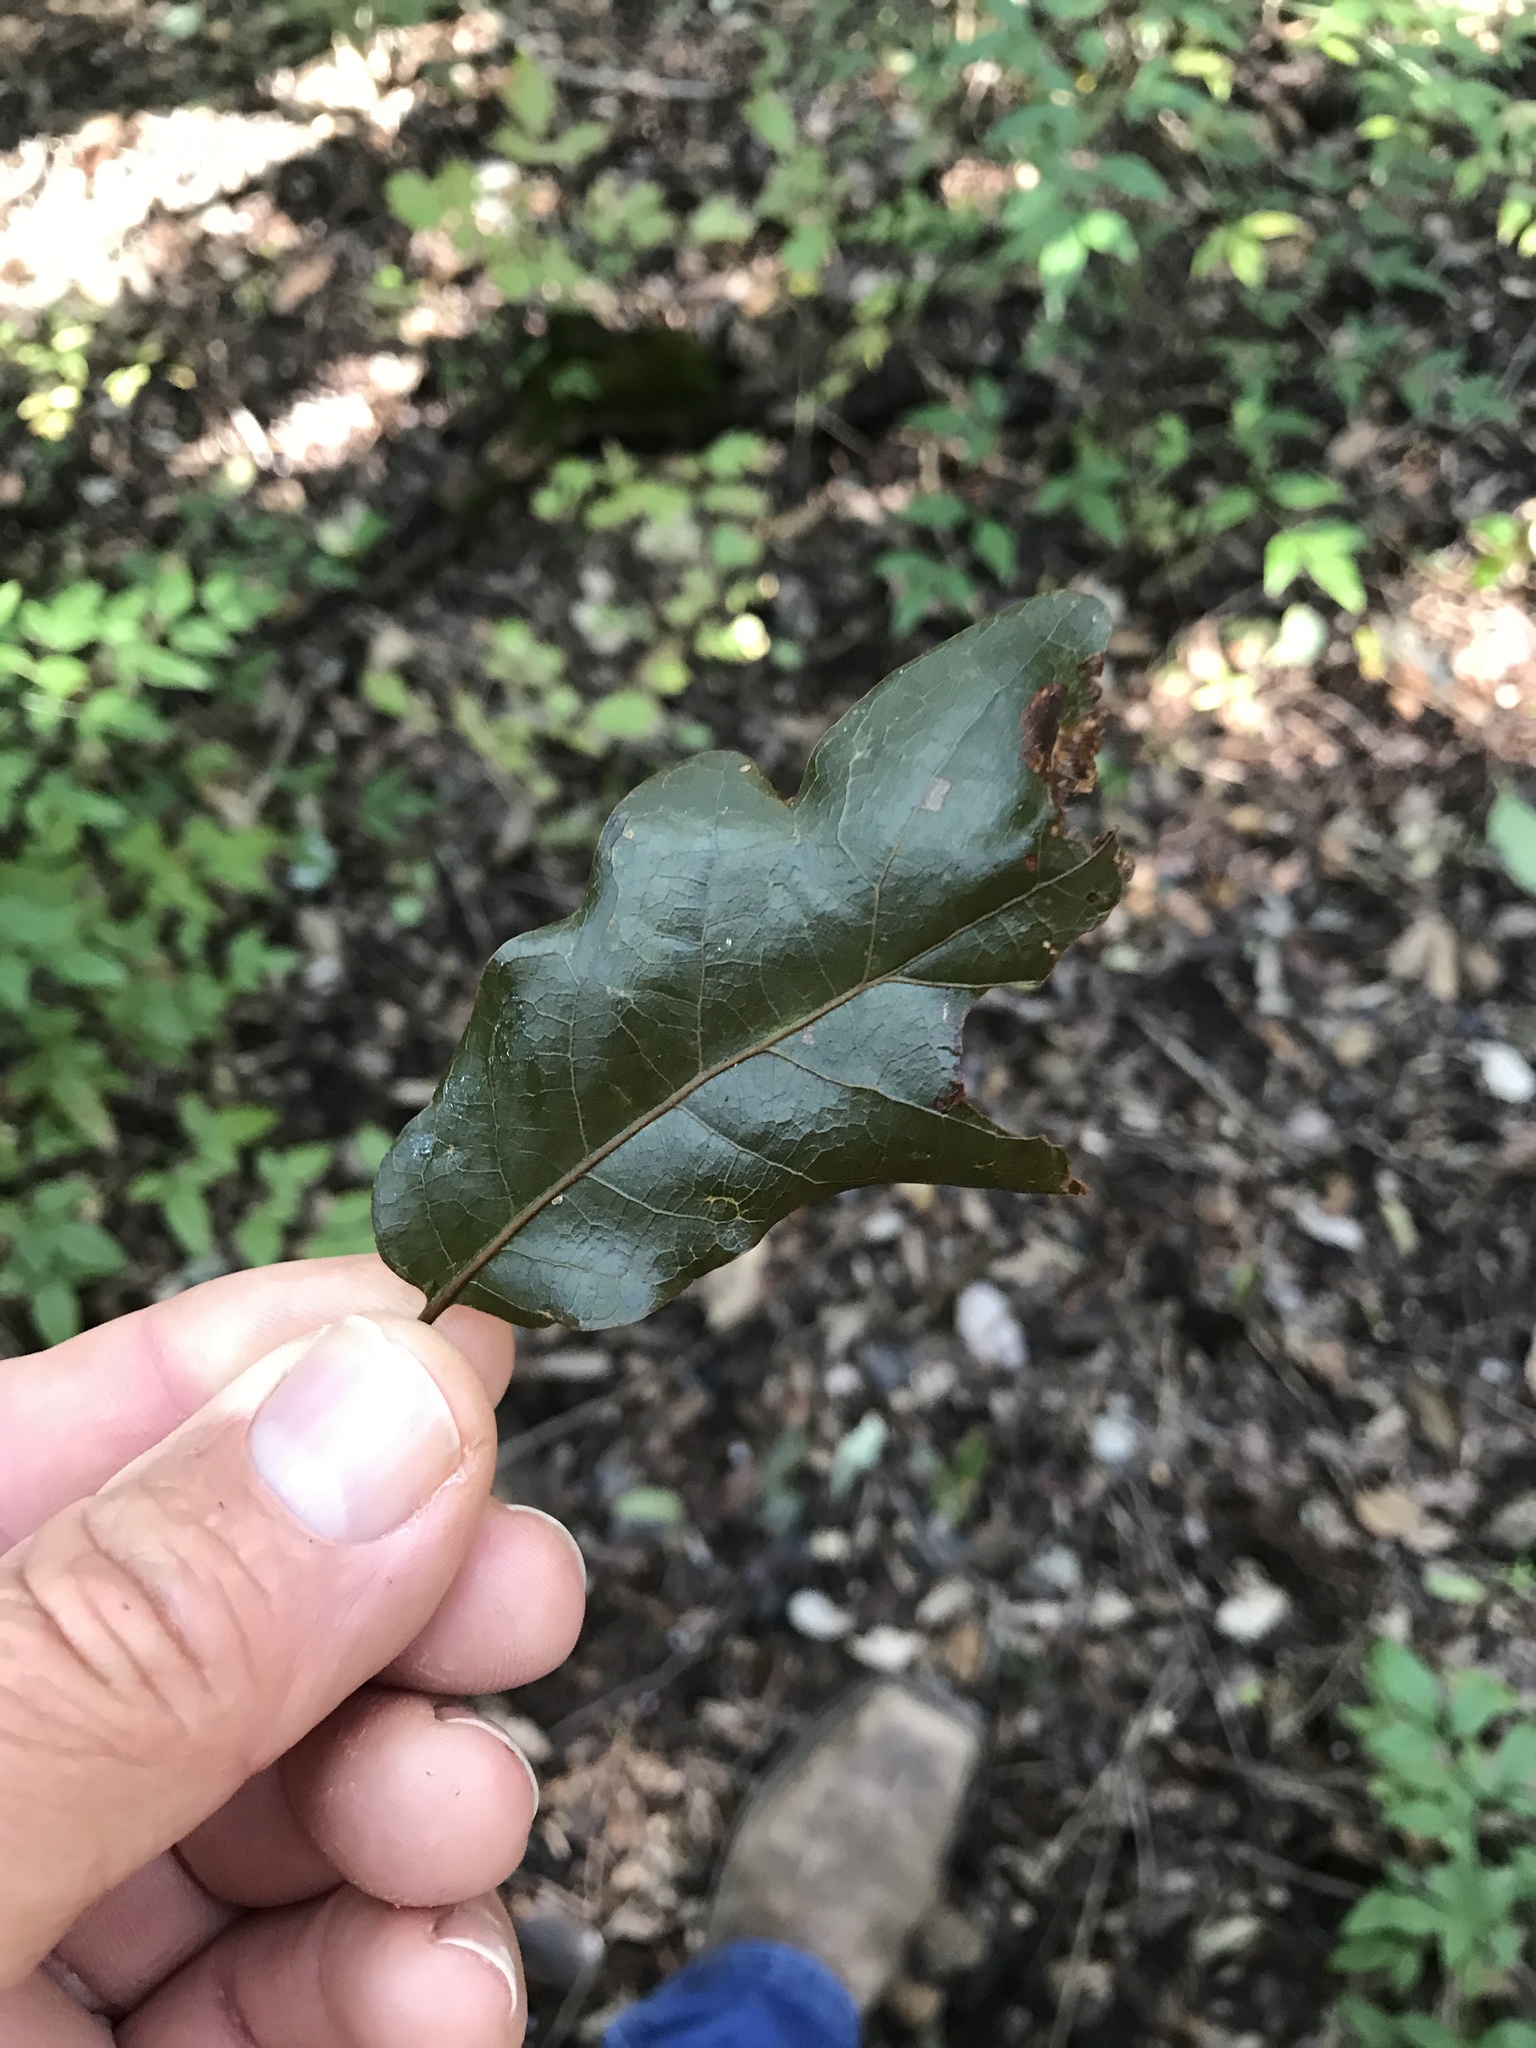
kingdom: Plantae
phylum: Tracheophyta
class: Magnoliopsida
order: Fagales
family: Fagaceae
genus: Quercus
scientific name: Quercus sinuata
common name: Durand oak
